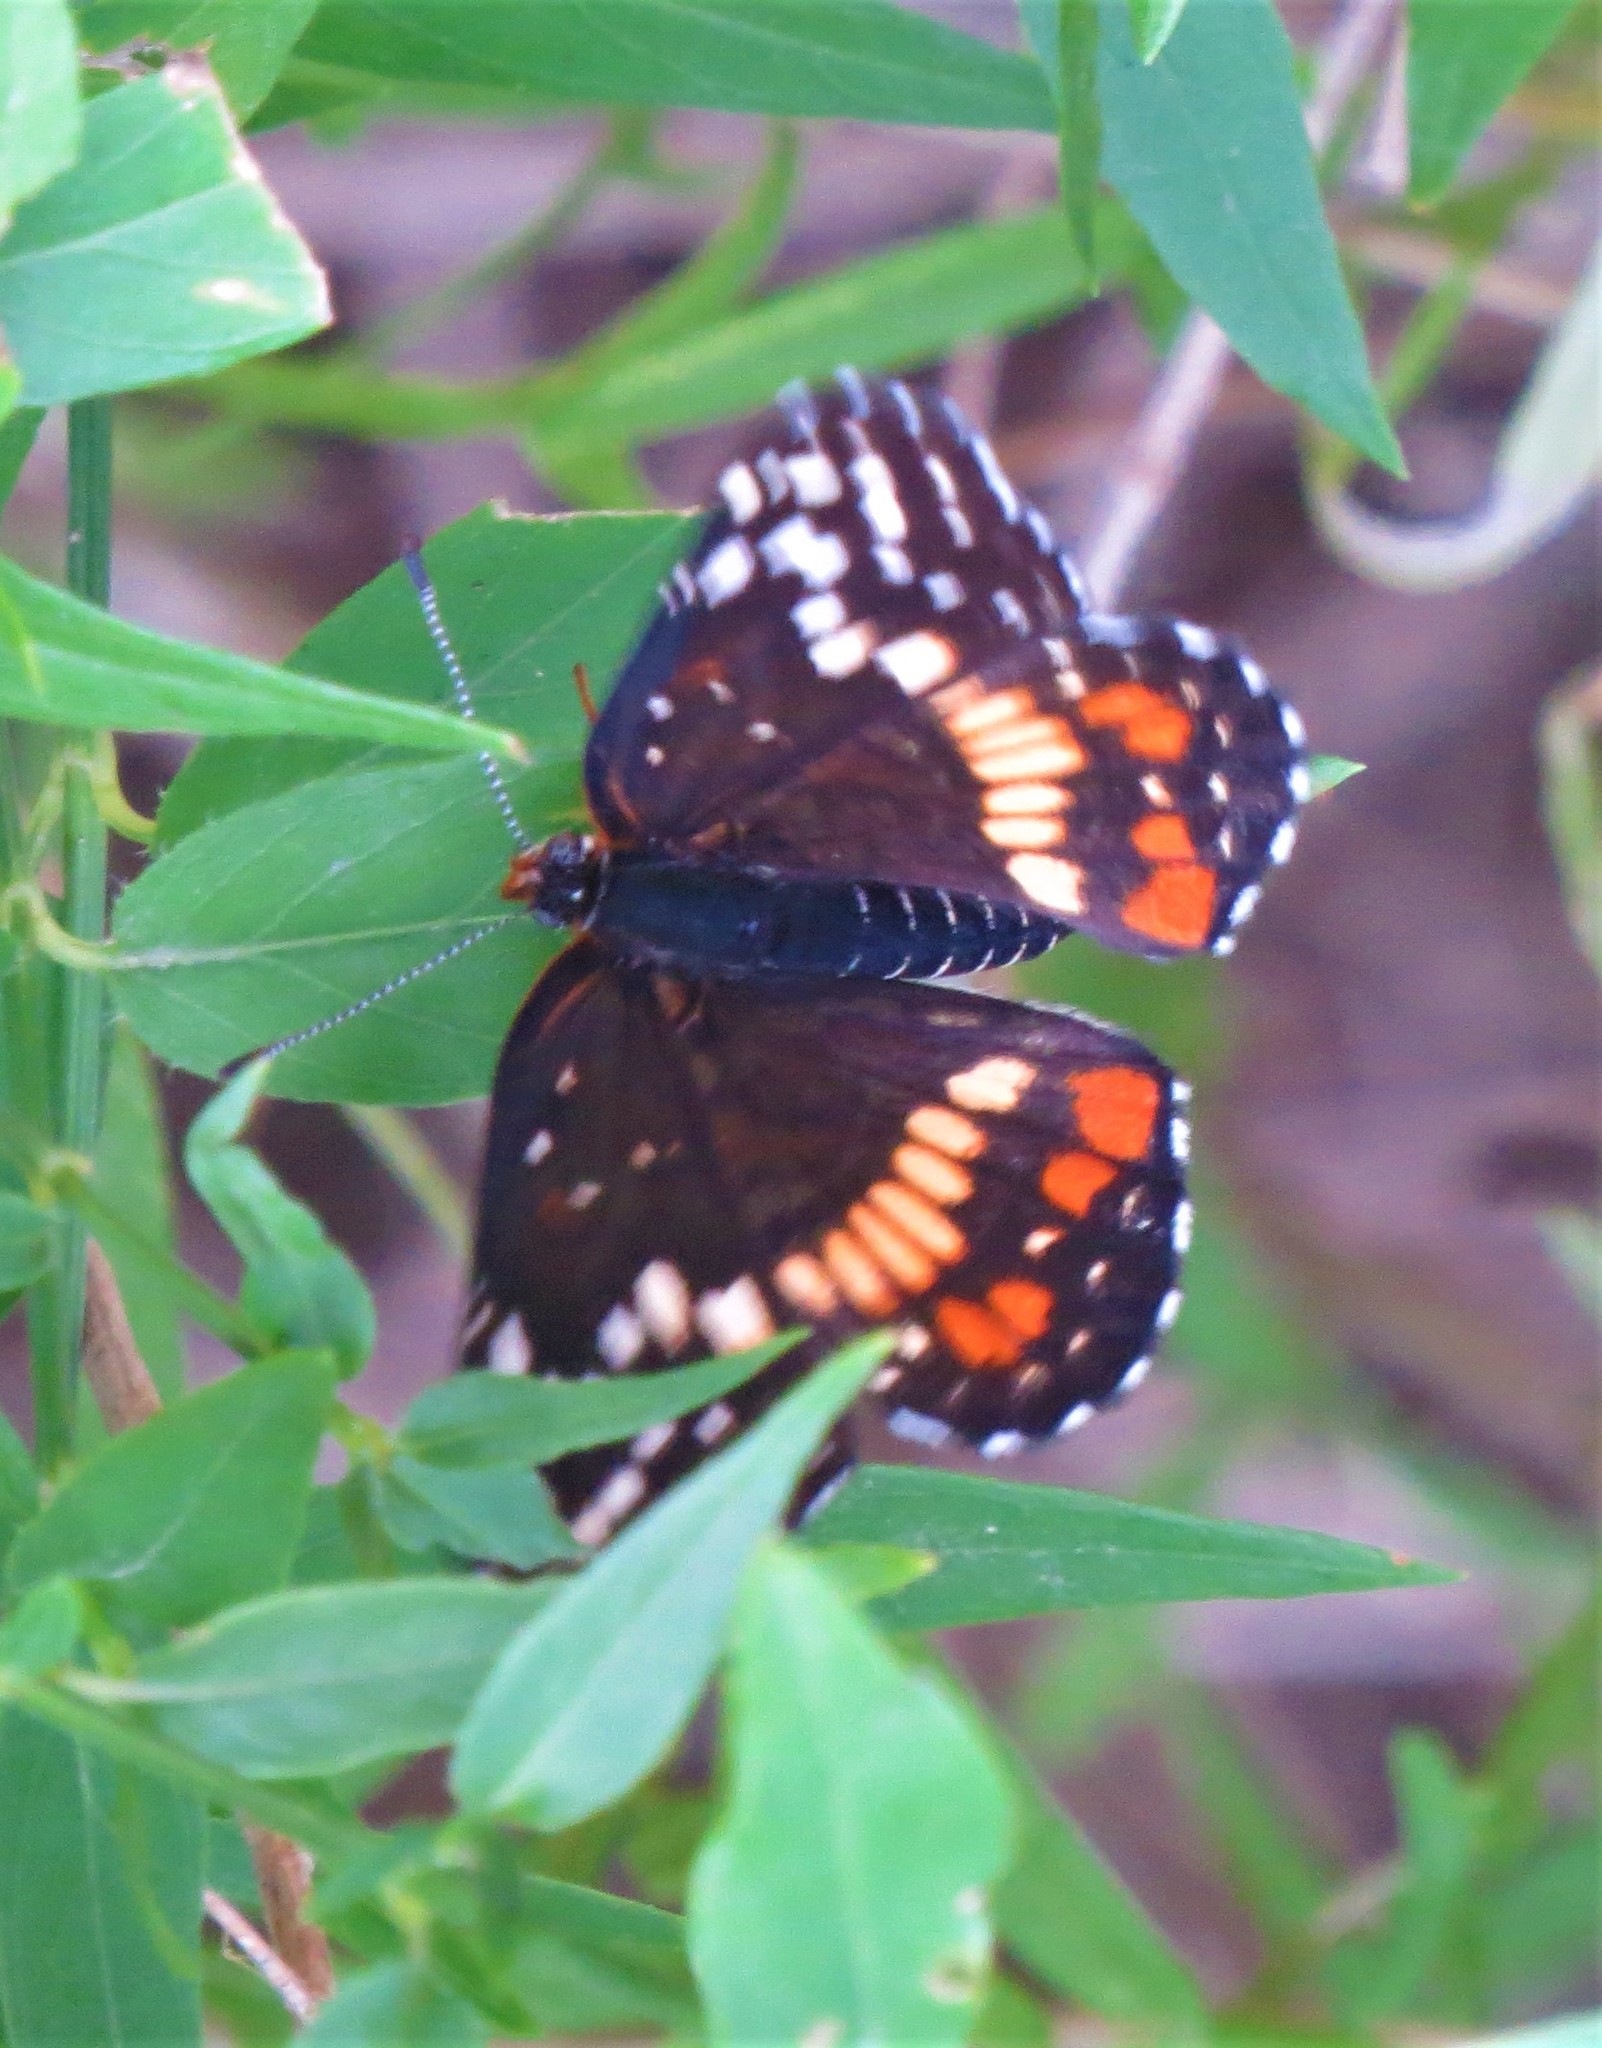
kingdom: Animalia
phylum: Arthropoda
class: Insecta
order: Lepidoptera
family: Nymphalidae
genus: Chlosyne
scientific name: Chlosyne endeis
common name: Banded checkerspot
